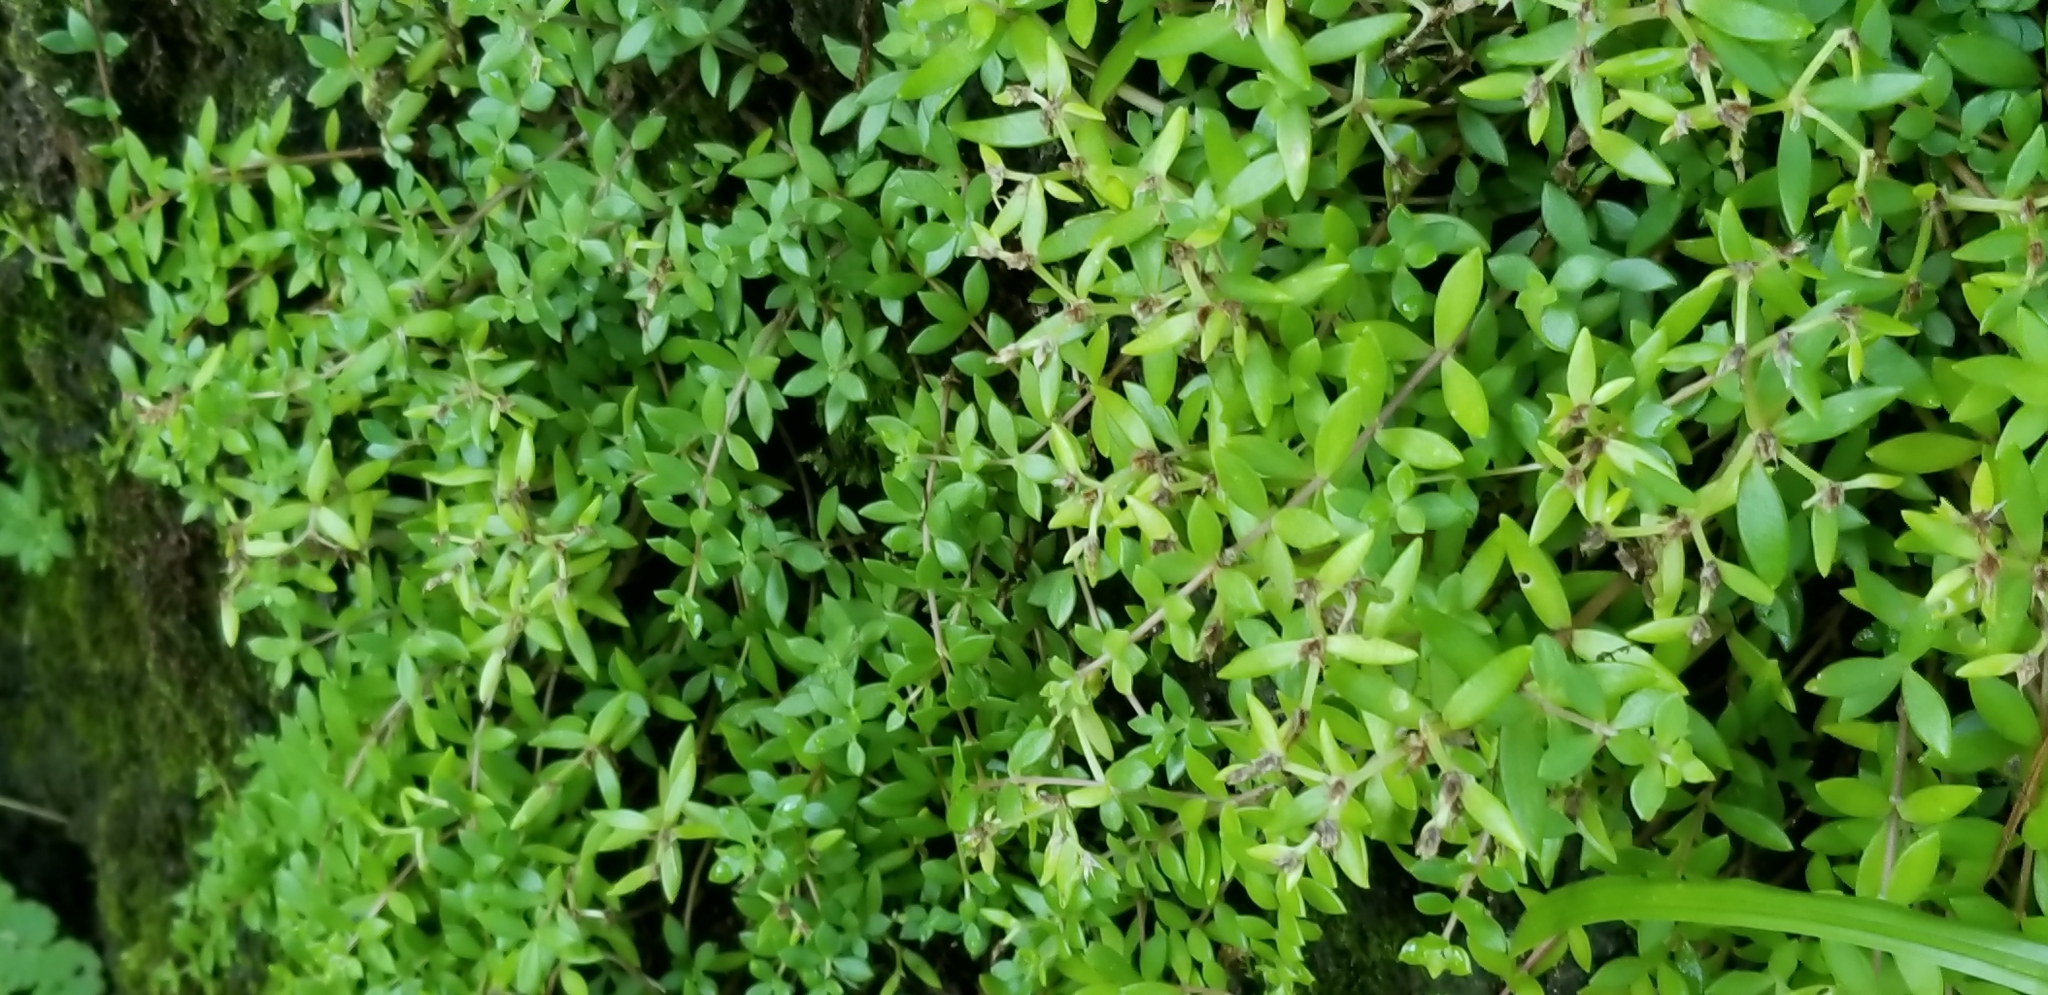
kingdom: Plantae
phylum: Tracheophyta
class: Magnoliopsida
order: Saxifragales
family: Crassulaceae
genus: Sedum
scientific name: Sedum sarmentosum
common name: Stringy stonecrop
